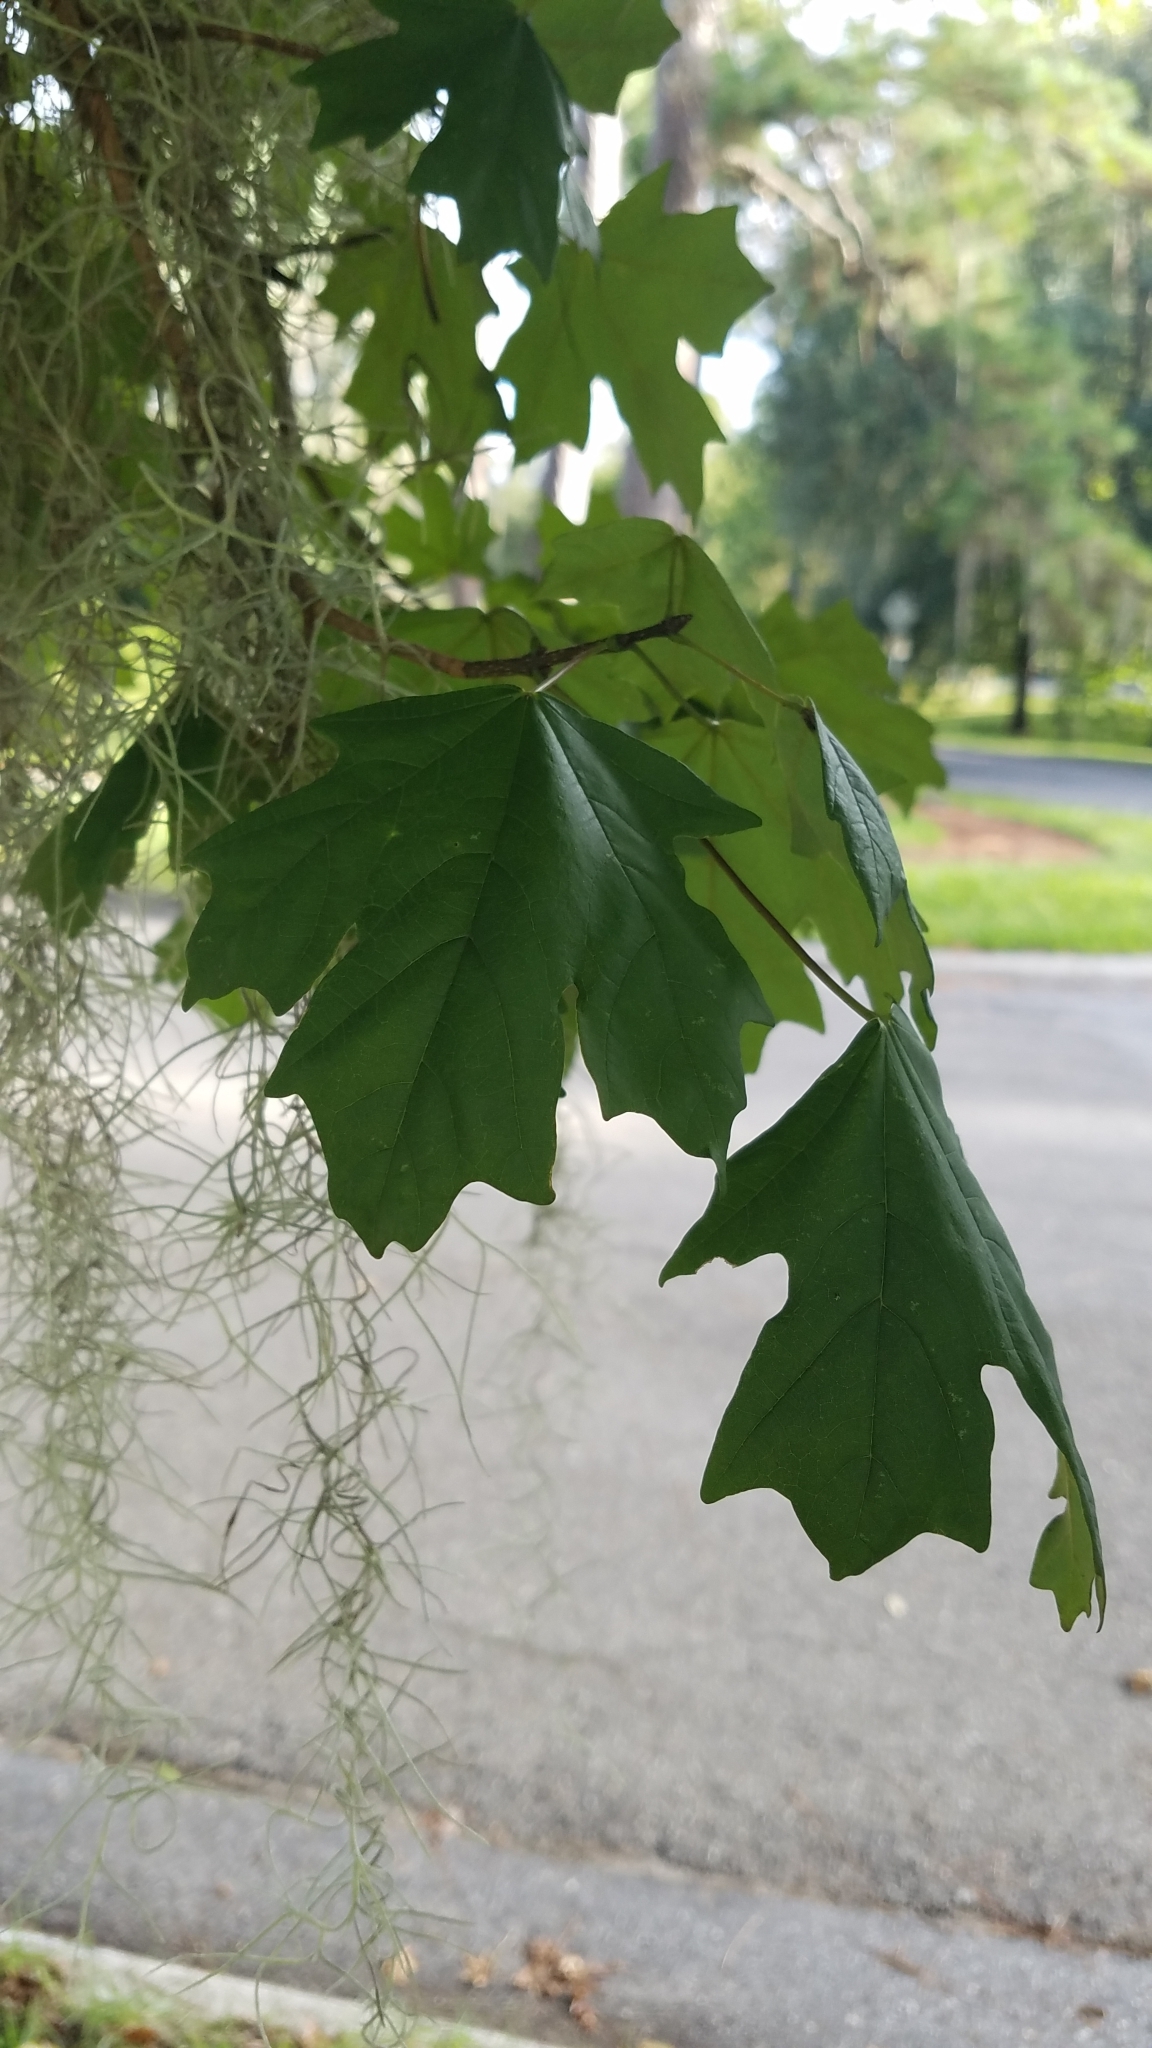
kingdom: Plantae
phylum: Tracheophyta
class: Magnoliopsida
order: Sapindales
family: Sapindaceae
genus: Acer
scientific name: Acer floridanum
